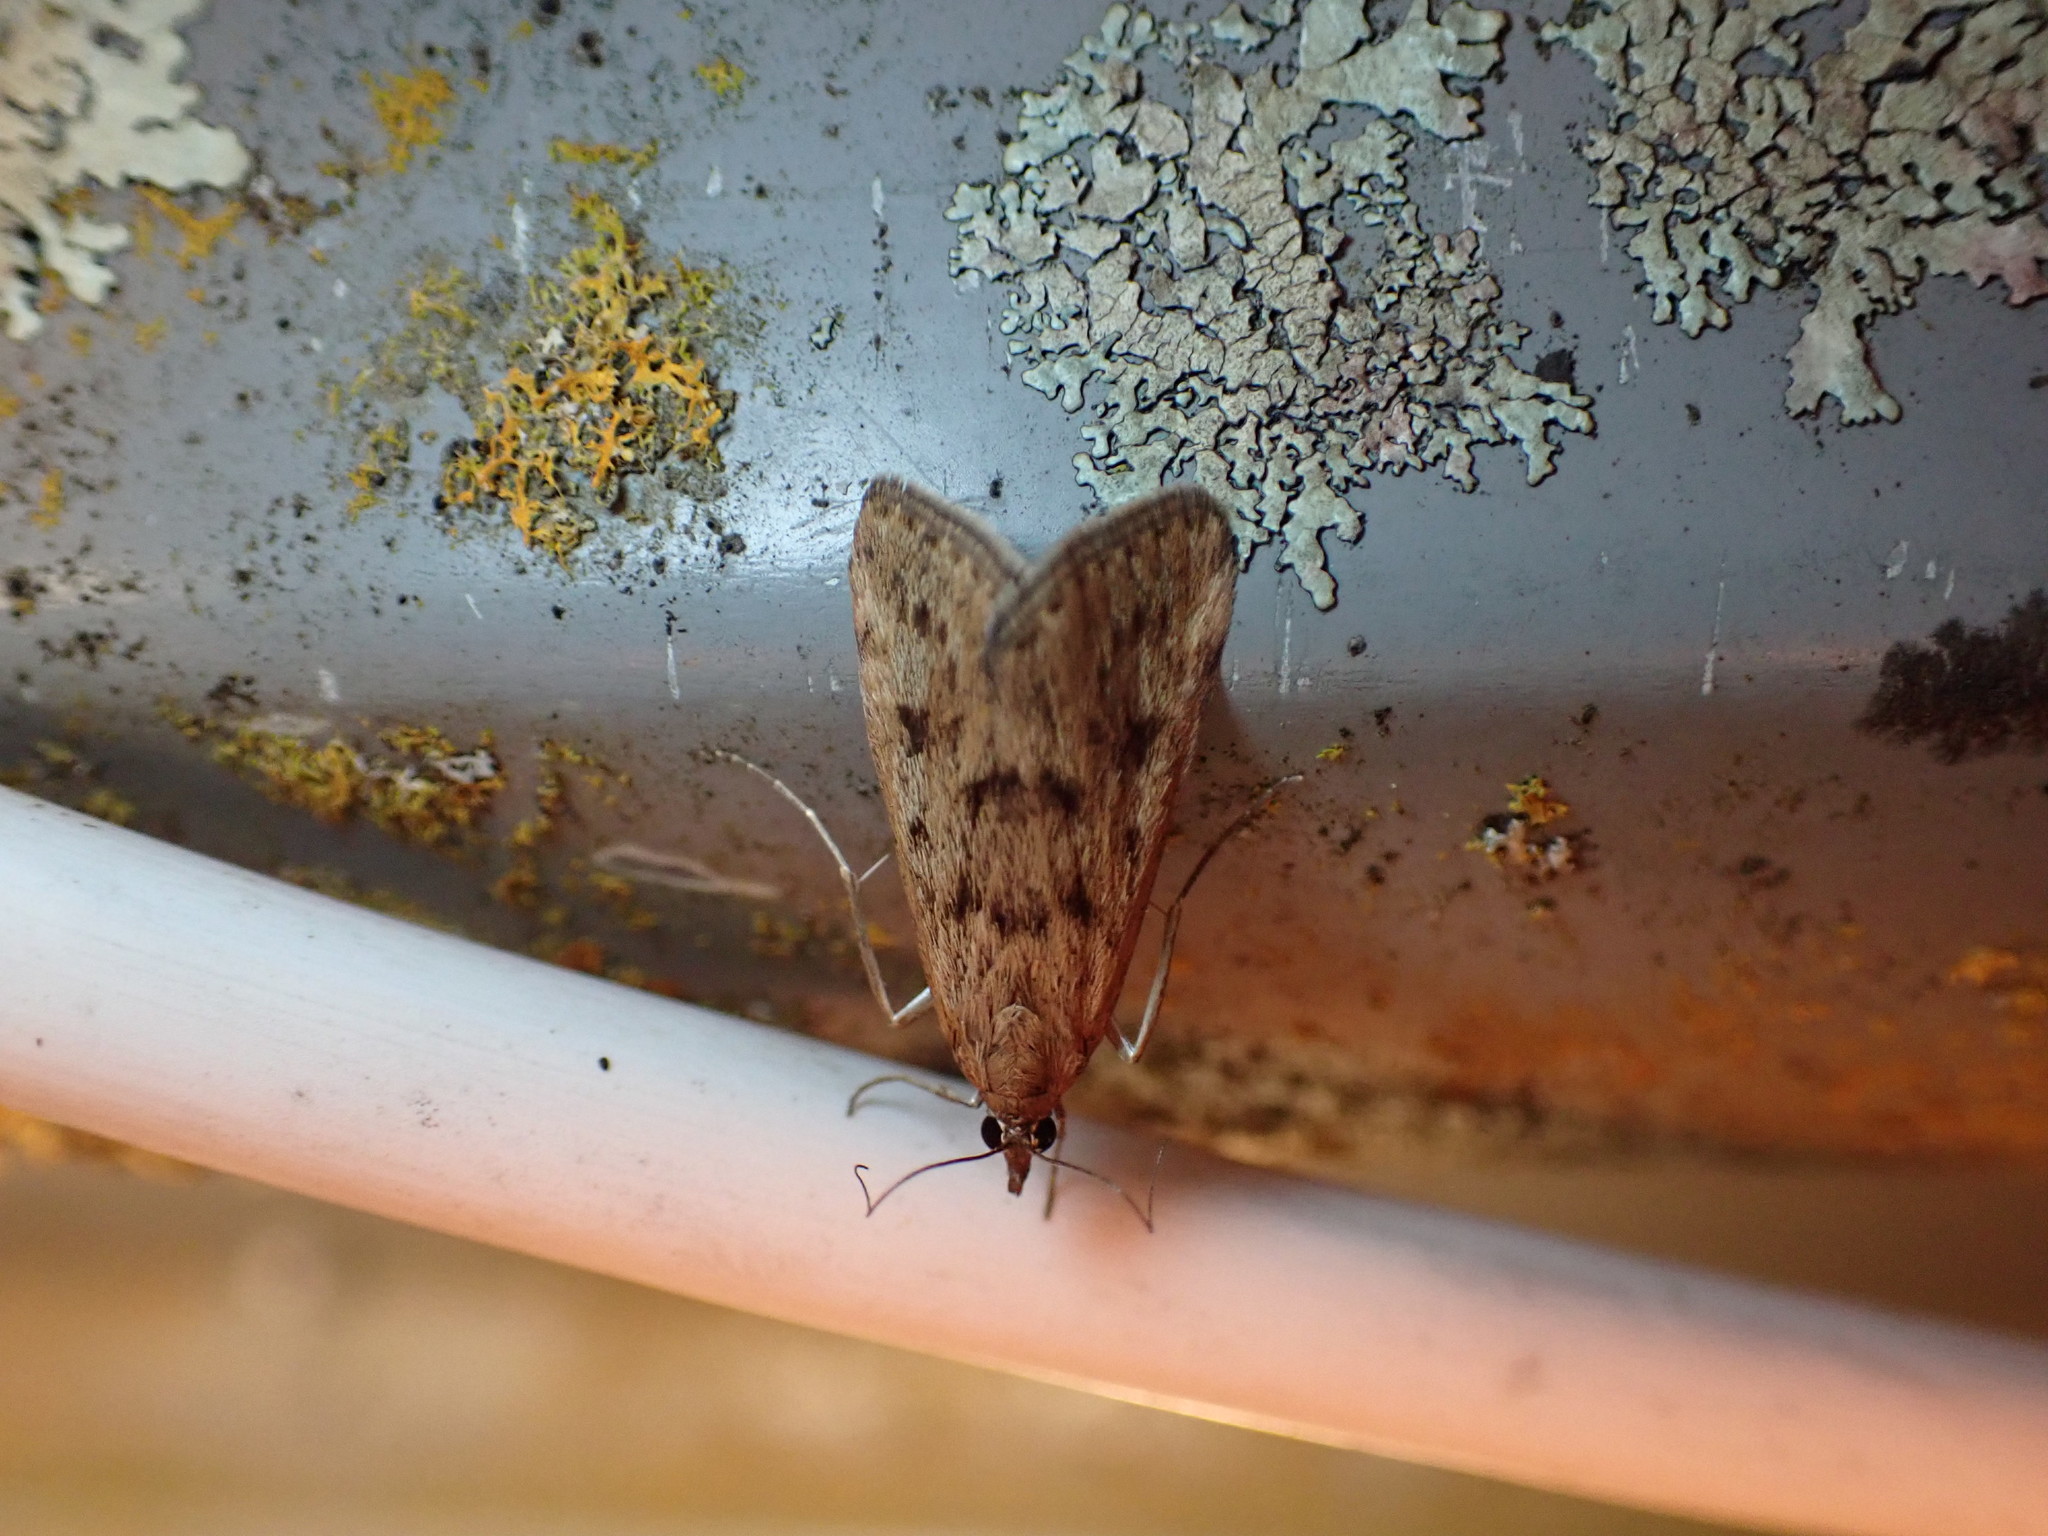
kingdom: Animalia
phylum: Arthropoda
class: Insecta
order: Lepidoptera
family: Crambidae
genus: Achyra
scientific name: Achyra affinitalis
